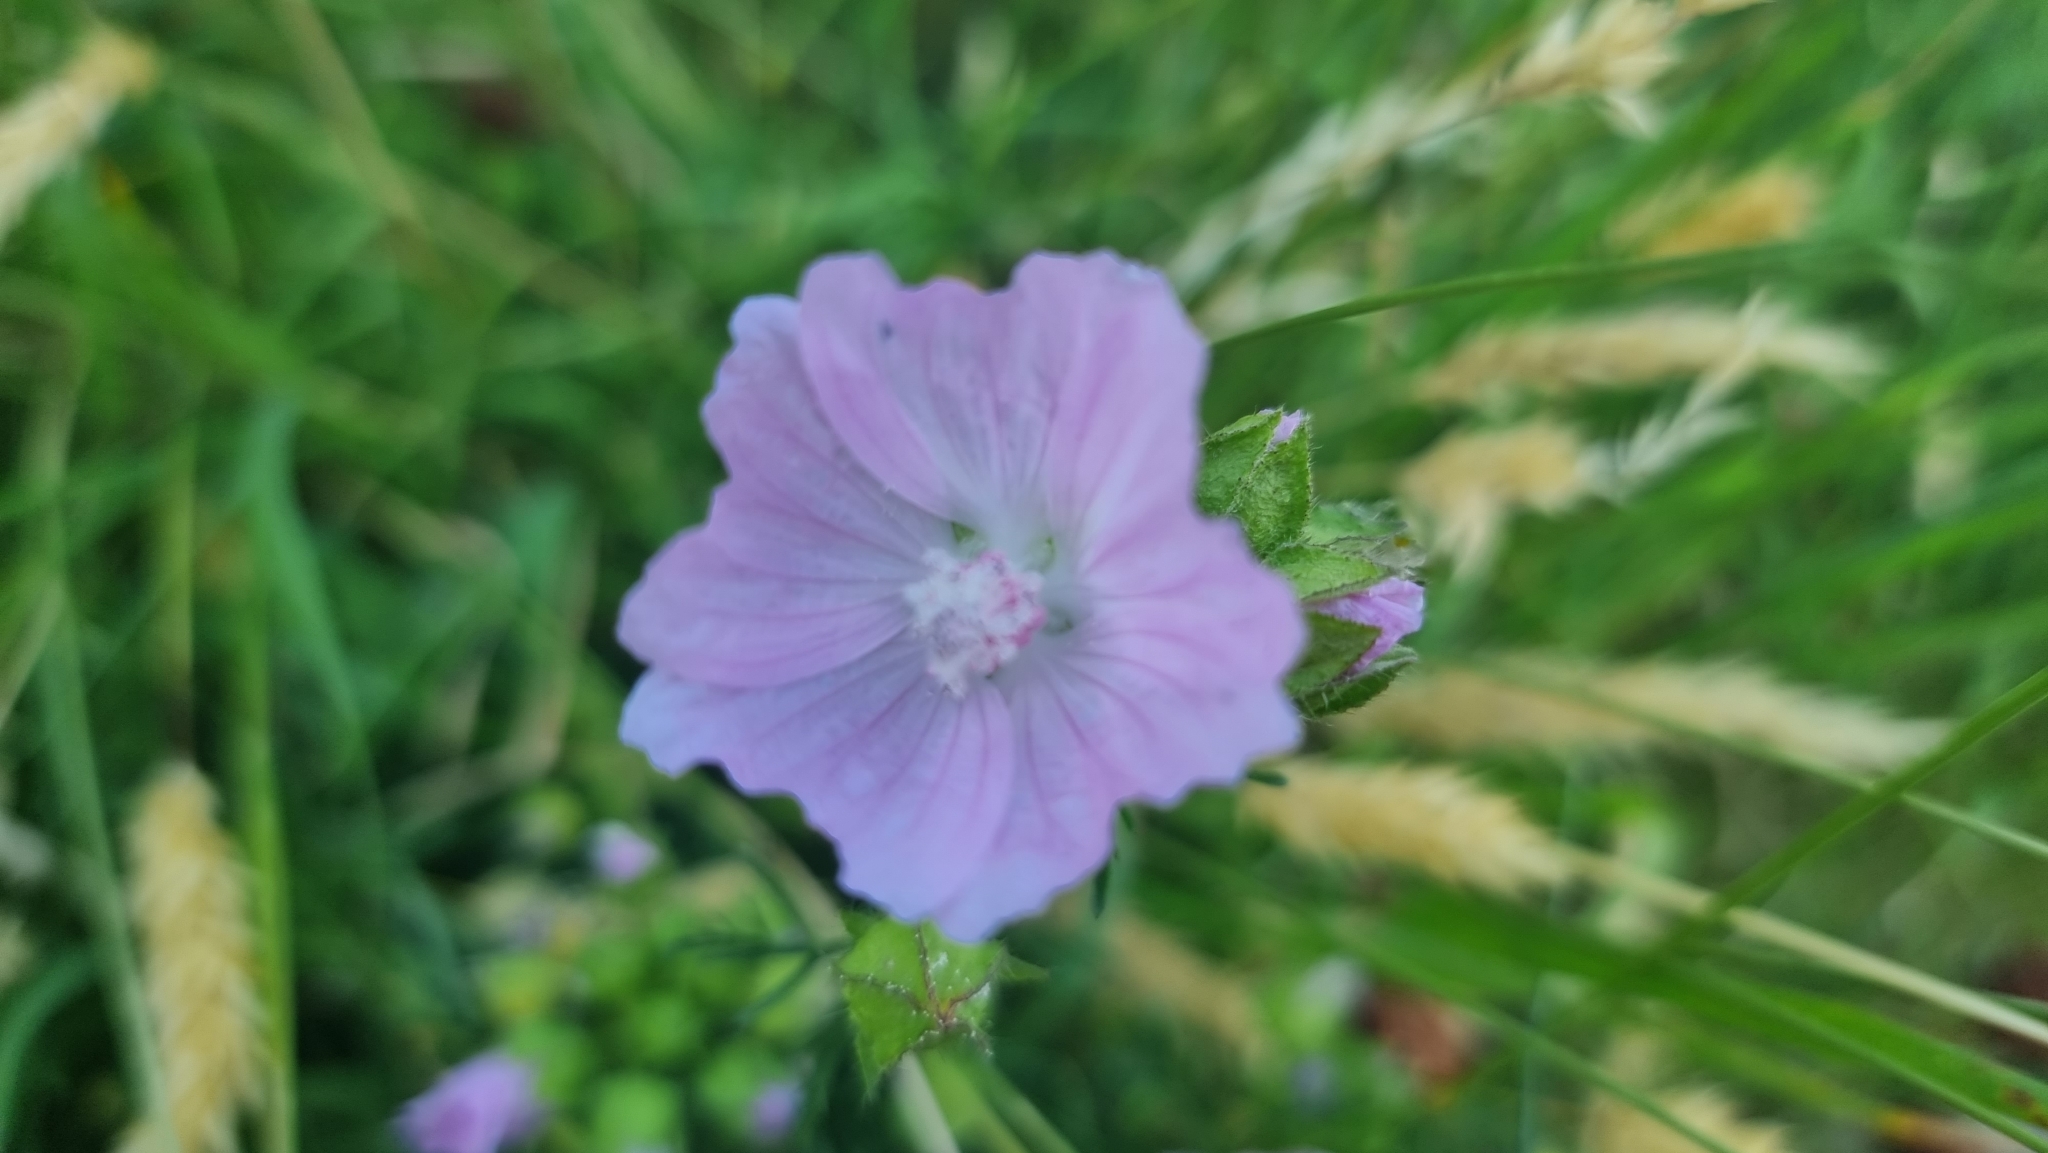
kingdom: Plantae
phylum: Tracheophyta
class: Magnoliopsida
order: Malvales
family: Malvaceae
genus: Malva
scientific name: Malva moschata
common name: Musk mallow
